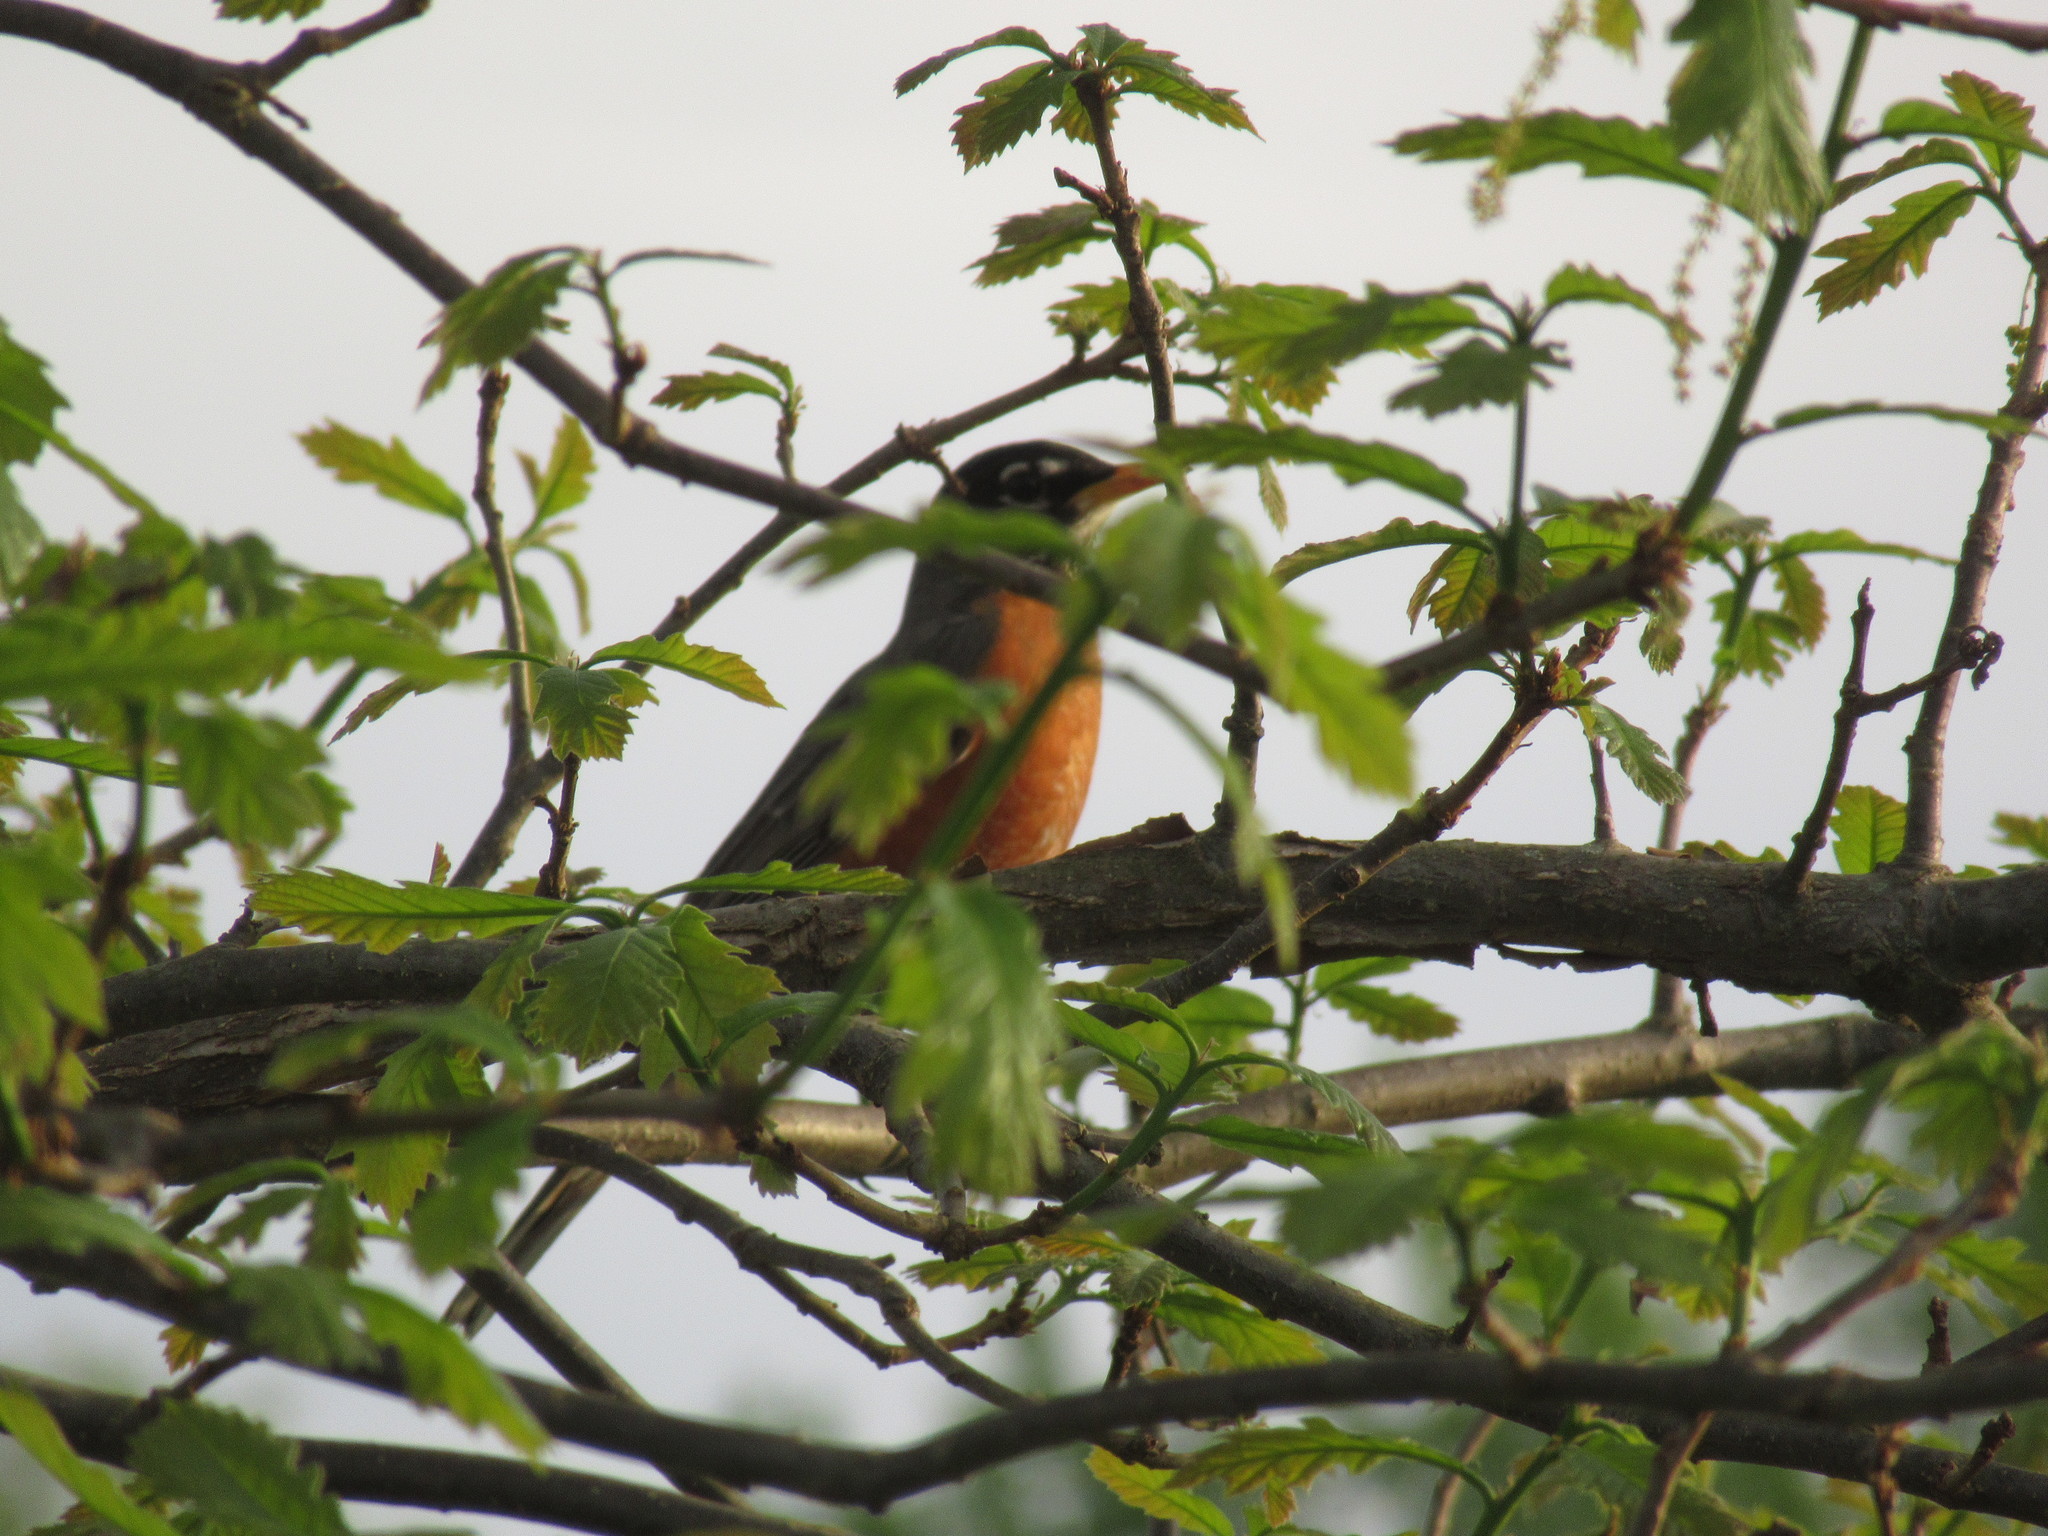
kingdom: Animalia
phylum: Chordata
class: Aves
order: Passeriformes
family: Turdidae
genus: Turdus
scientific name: Turdus migratorius
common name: American robin
